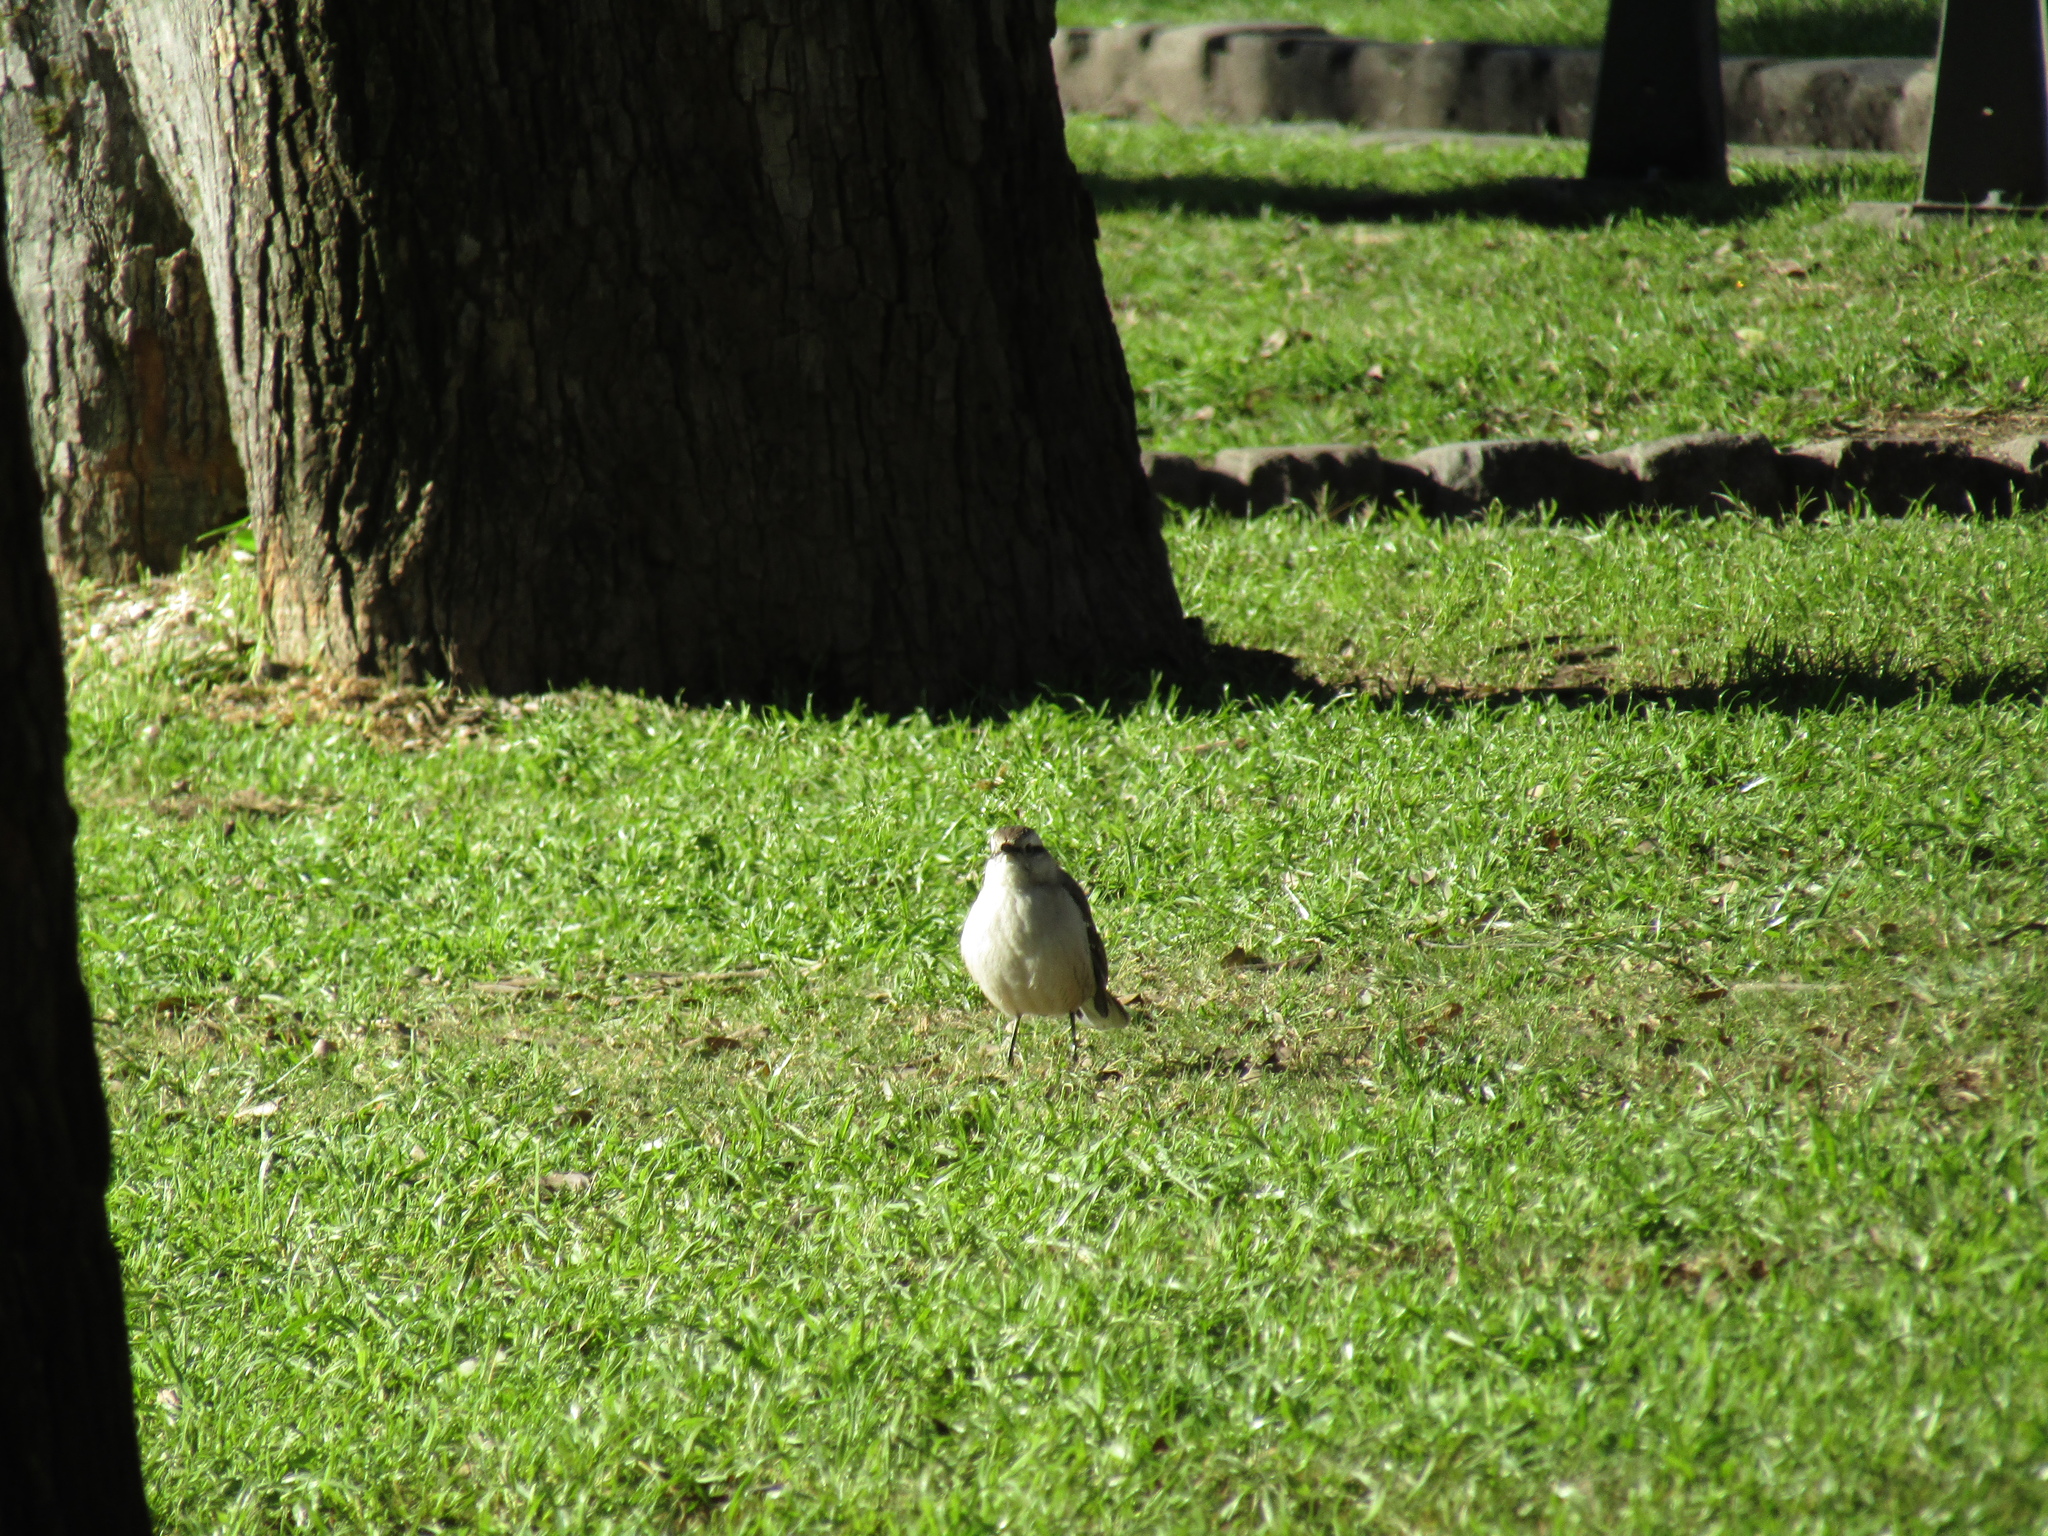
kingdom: Animalia
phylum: Chordata
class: Aves
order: Passeriformes
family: Mimidae
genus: Mimus
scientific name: Mimus saturninus
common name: Chalk-browed mockingbird
